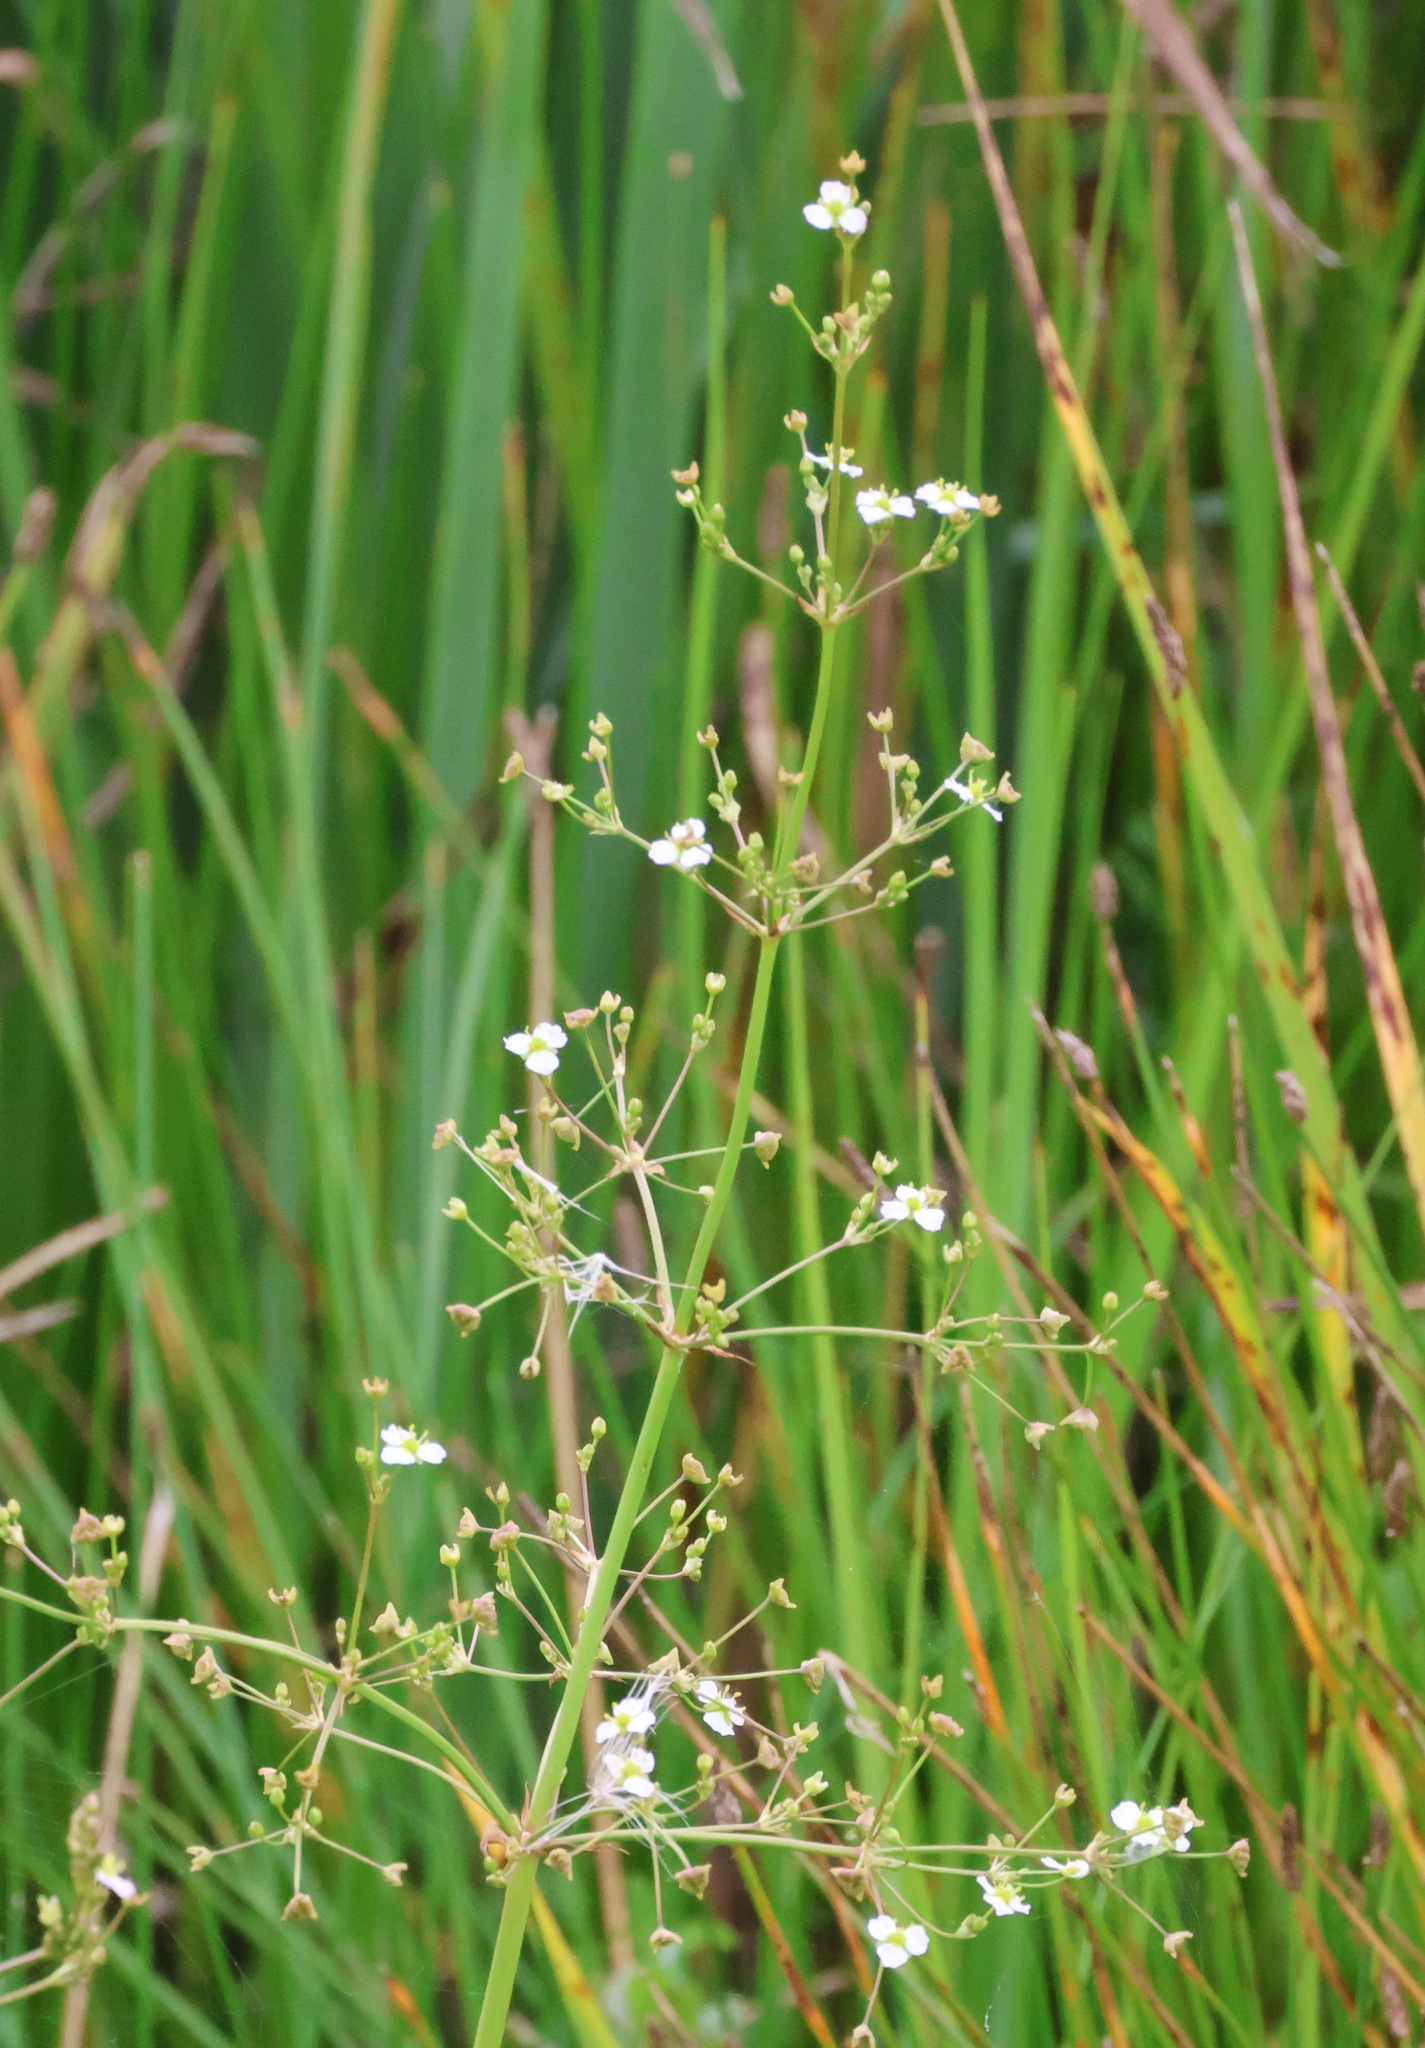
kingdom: Plantae
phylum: Tracheophyta
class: Liliopsida
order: Alismatales
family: Alismataceae
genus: Alisma
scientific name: Alisma plantago-aquatica
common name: Water-plantain
